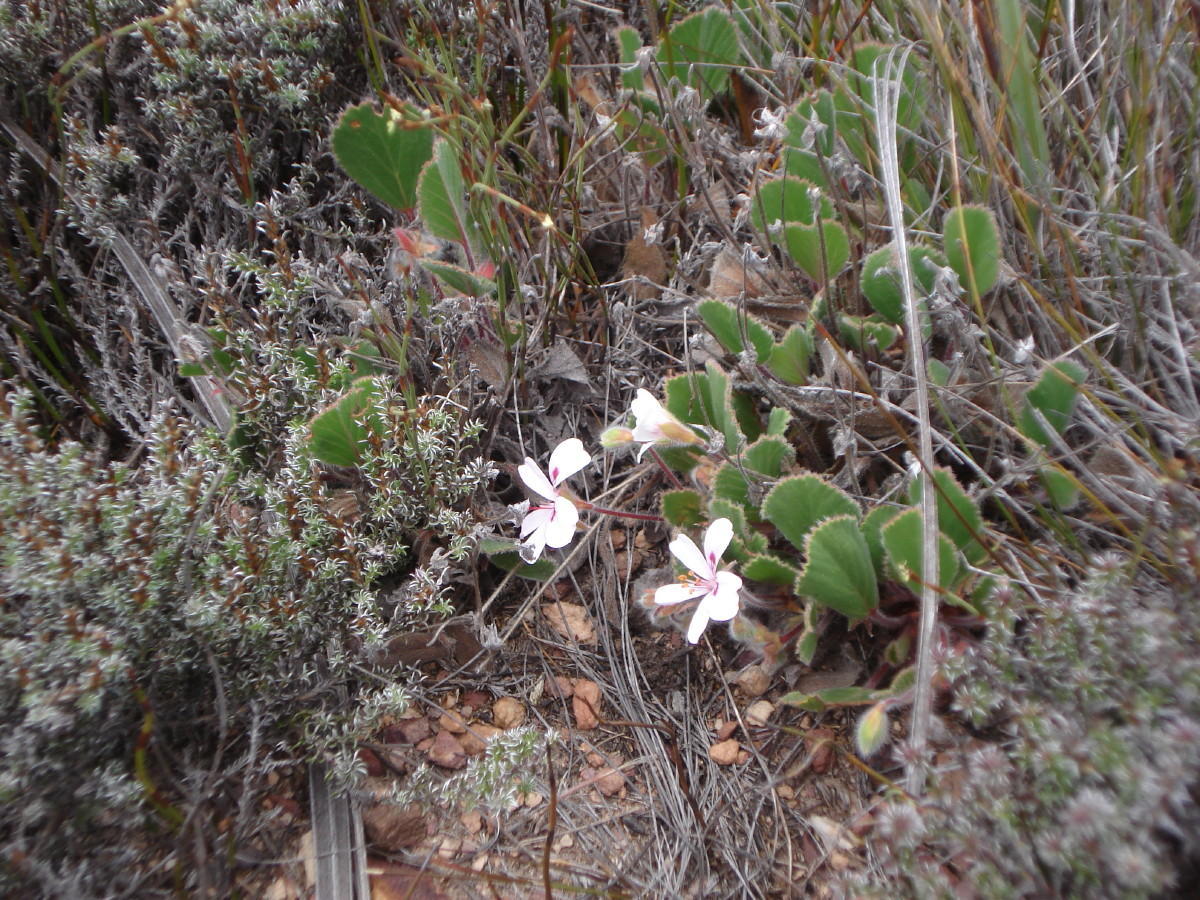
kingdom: Plantae
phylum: Tracheophyta
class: Magnoliopsida
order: Geraniales
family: Geraniaceae
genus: Pelargonium
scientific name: Pelargonium ovale
